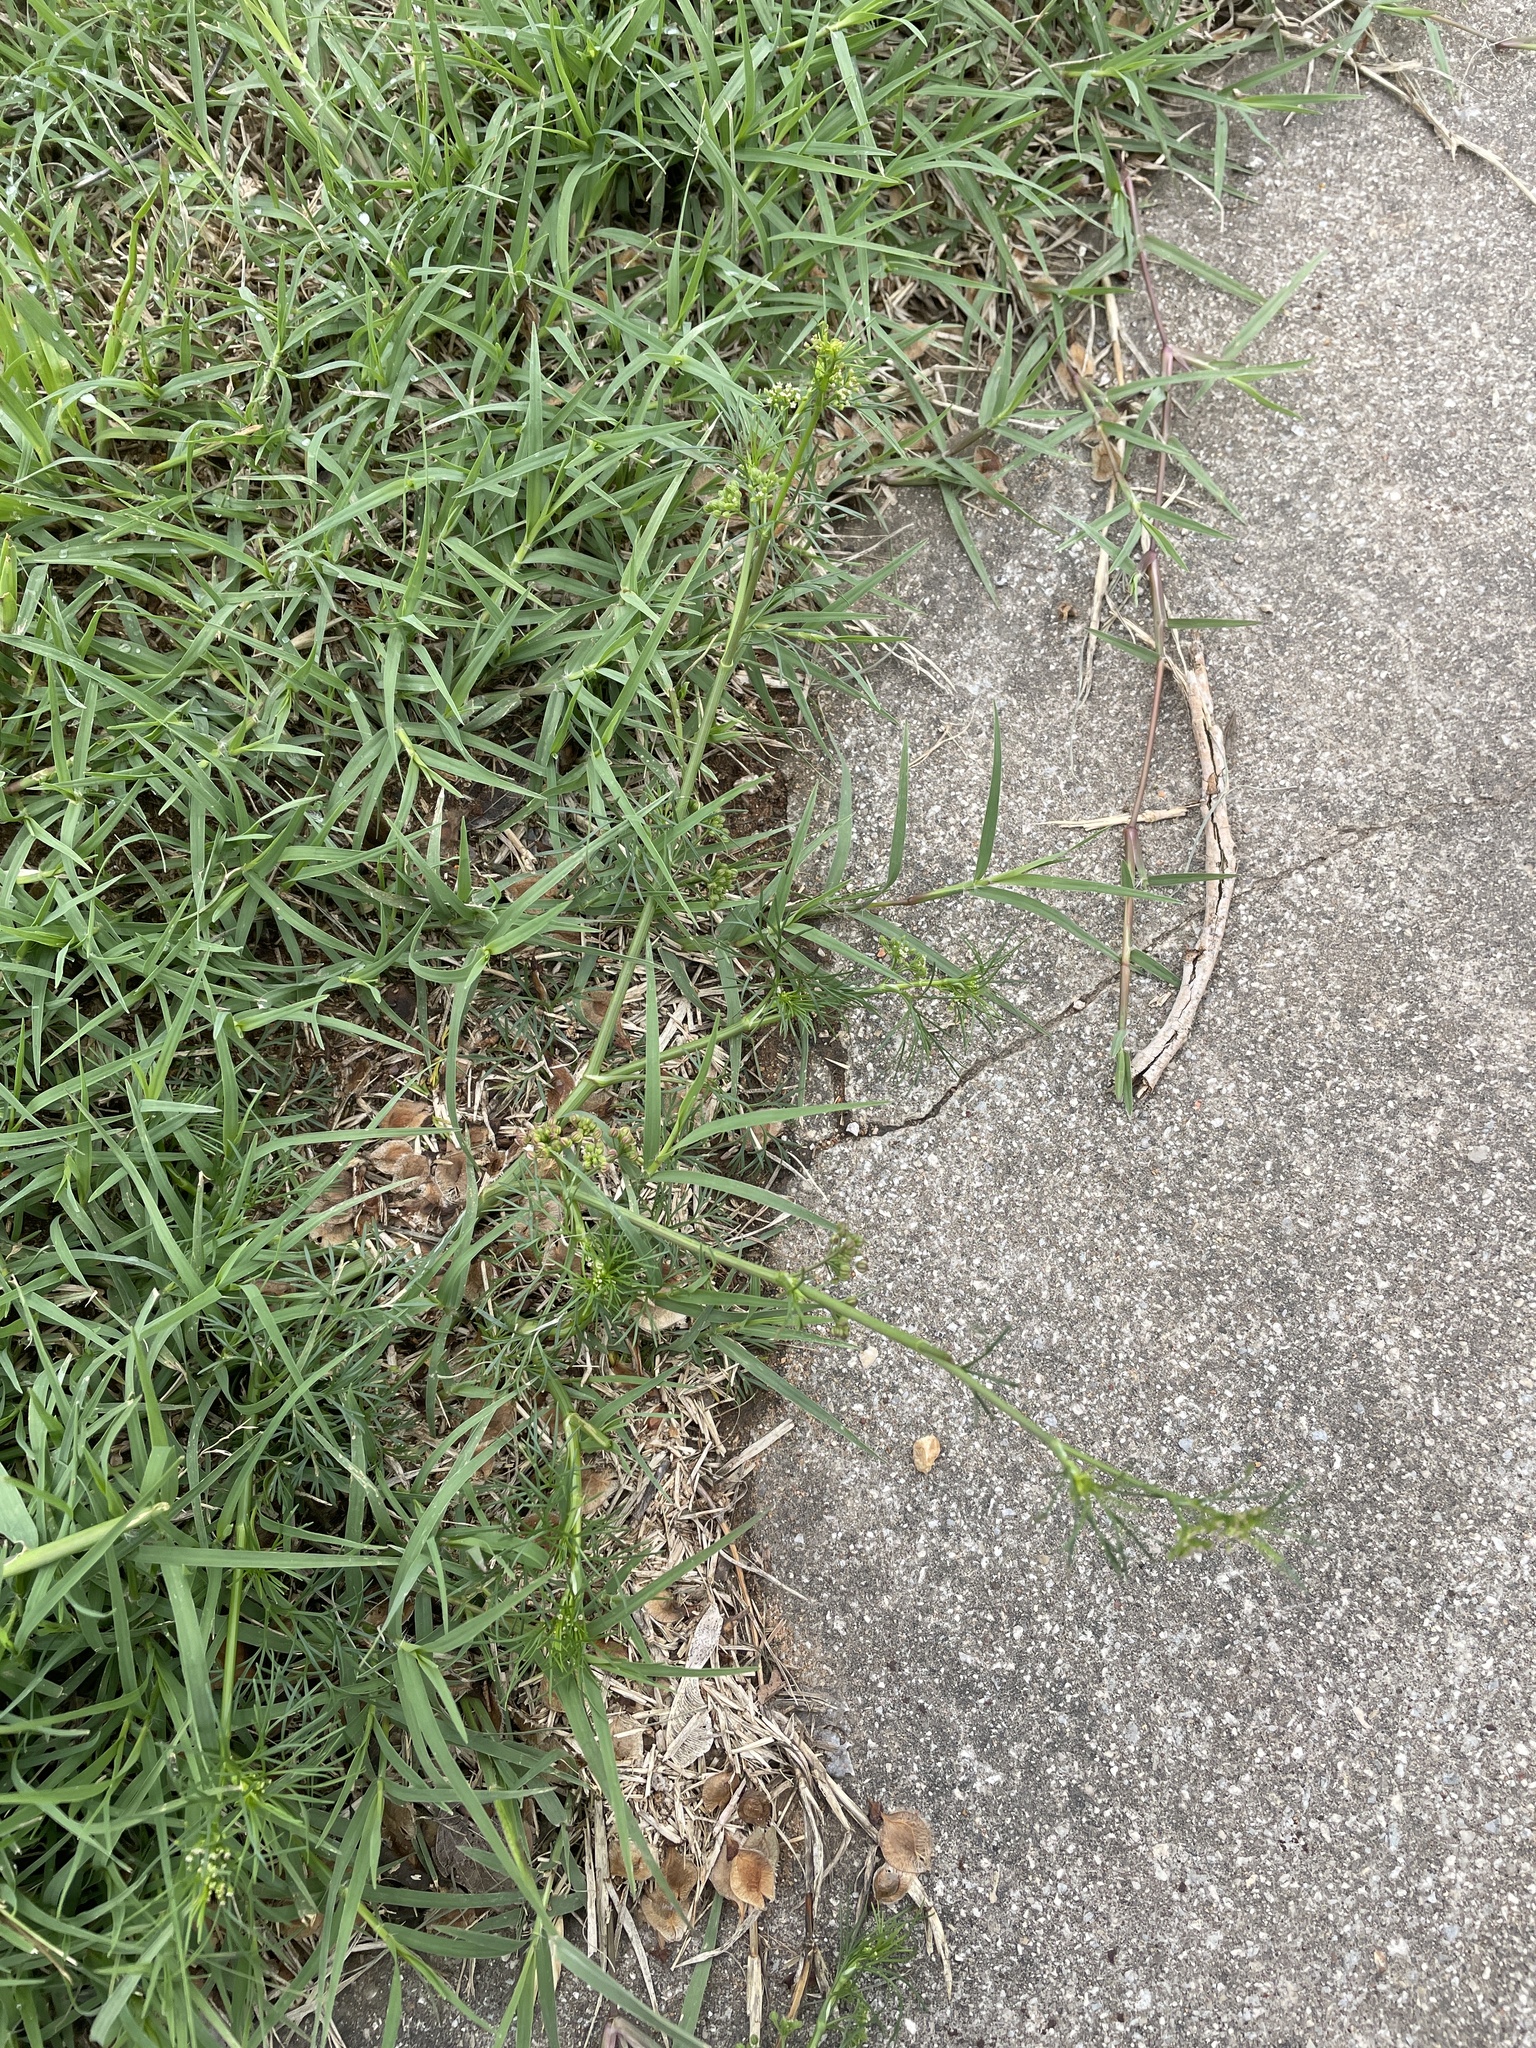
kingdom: Plantae
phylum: Tracheophyta
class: Magnoliopsida
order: Apiales
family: Apiaceae
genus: Cyclospermum
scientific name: Cyclospermum leptophyllum
